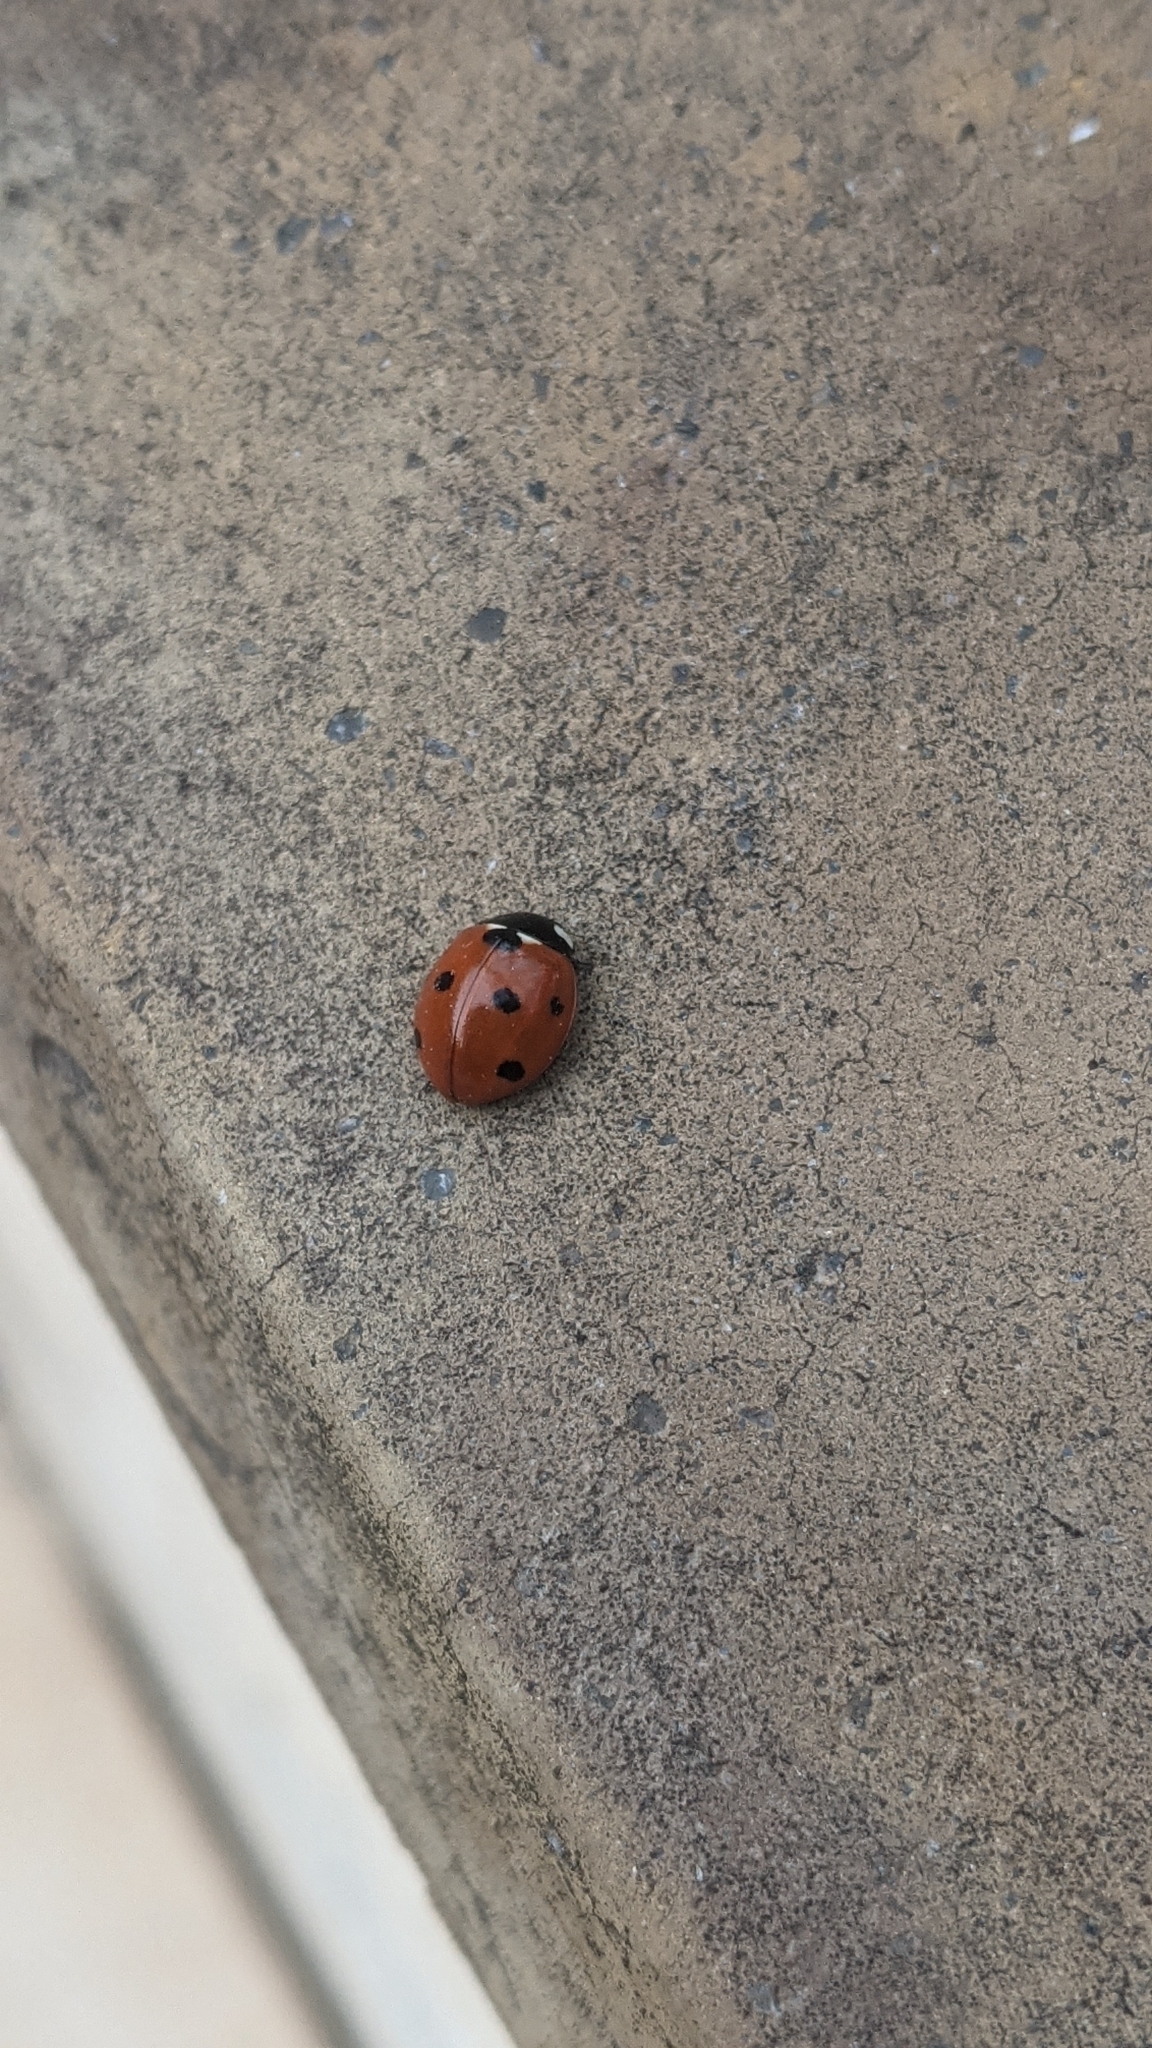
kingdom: Animalia
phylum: Arthropoda
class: Insecta
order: Coleoptera
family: Coccinellidae
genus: Coccinella
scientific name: Coccinella septempunctata
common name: Sevenspotted lady beetle
